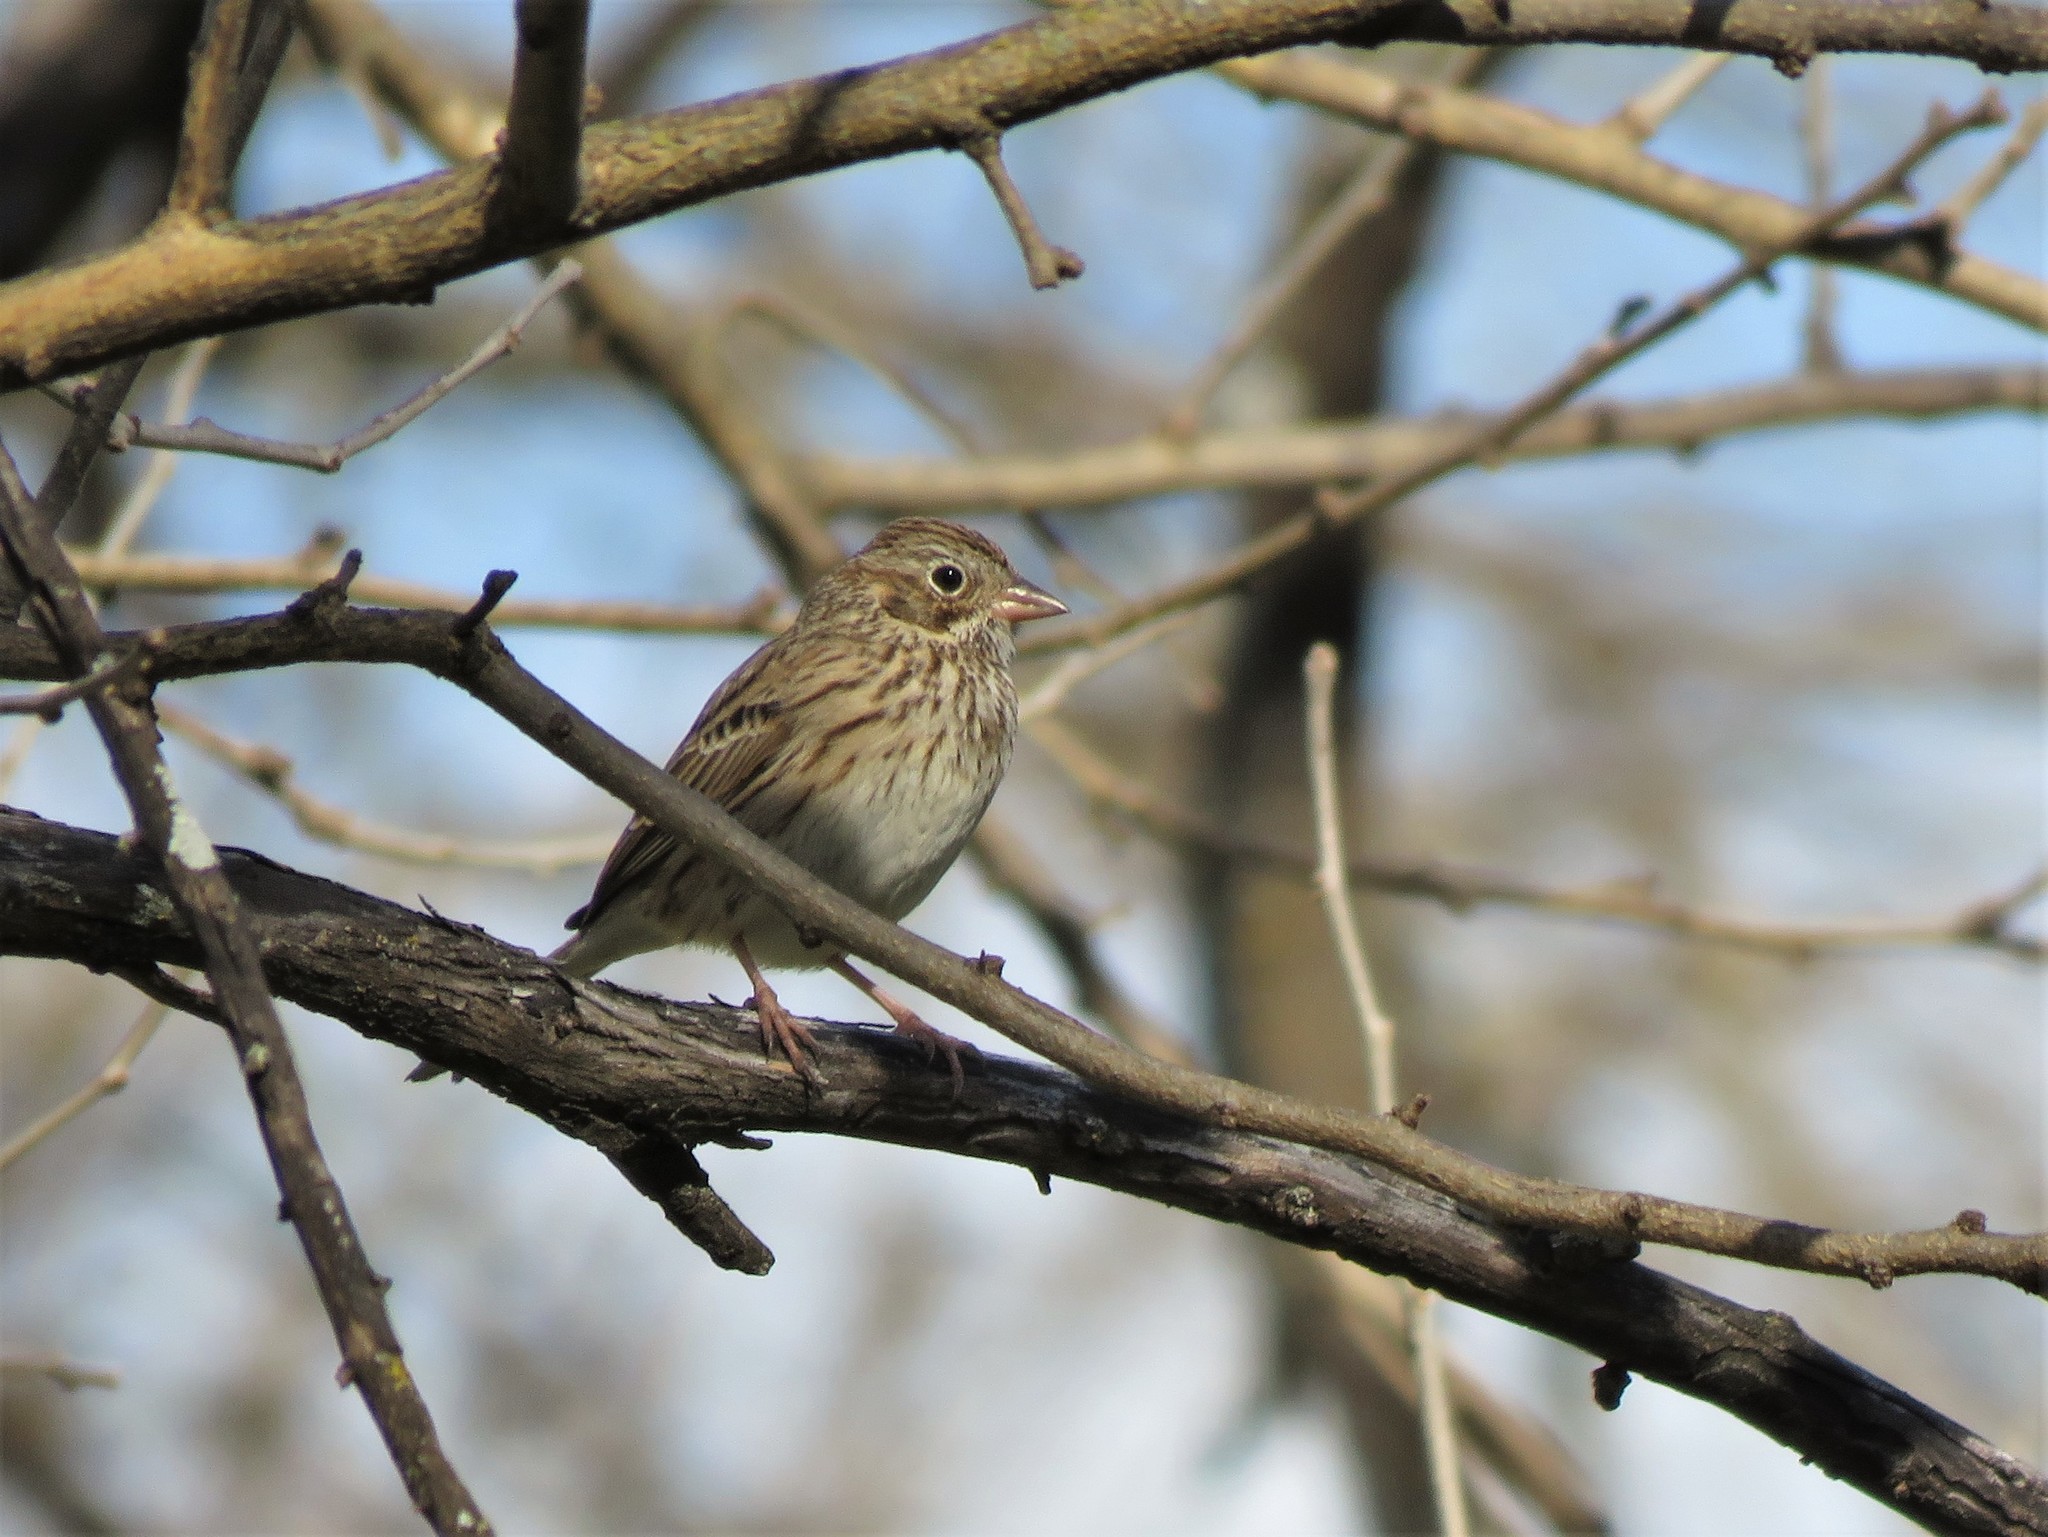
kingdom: Animalia
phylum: Chordata
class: Aves
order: Passeriformes
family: Passerellidae
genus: Pooecetes
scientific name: Pooecetes gramineus
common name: Vesper sparrow
